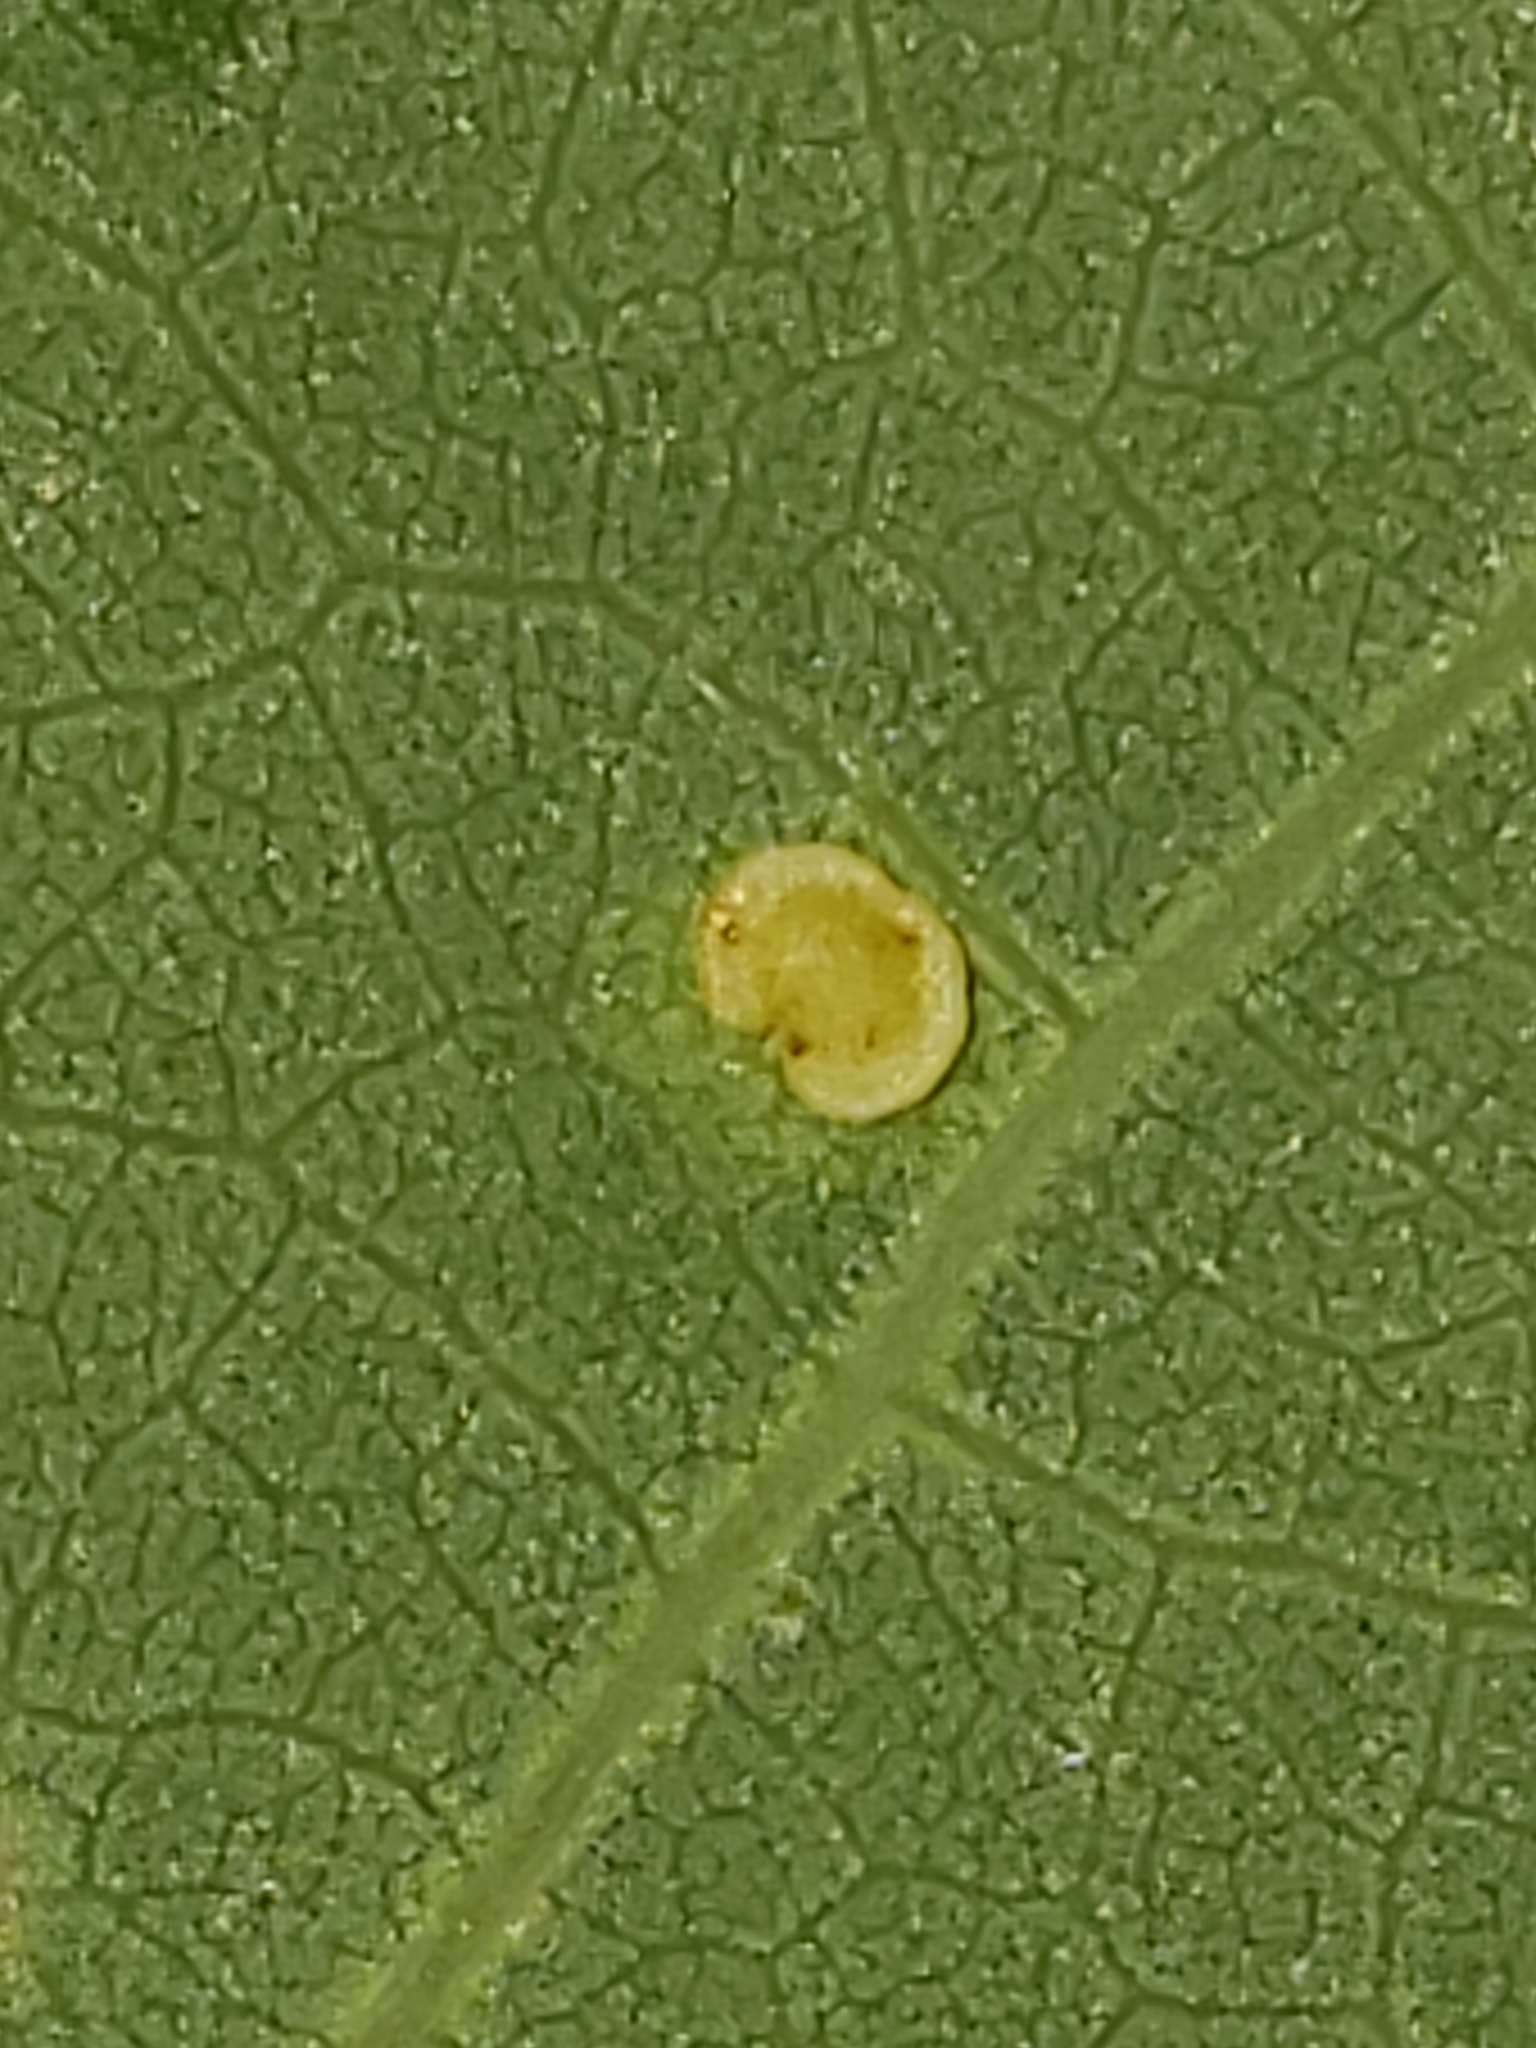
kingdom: Animalia
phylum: Arthropoda
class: Insecta
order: Hymenoptera
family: Cynipidae
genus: Neuroterus
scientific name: Neuroterus
